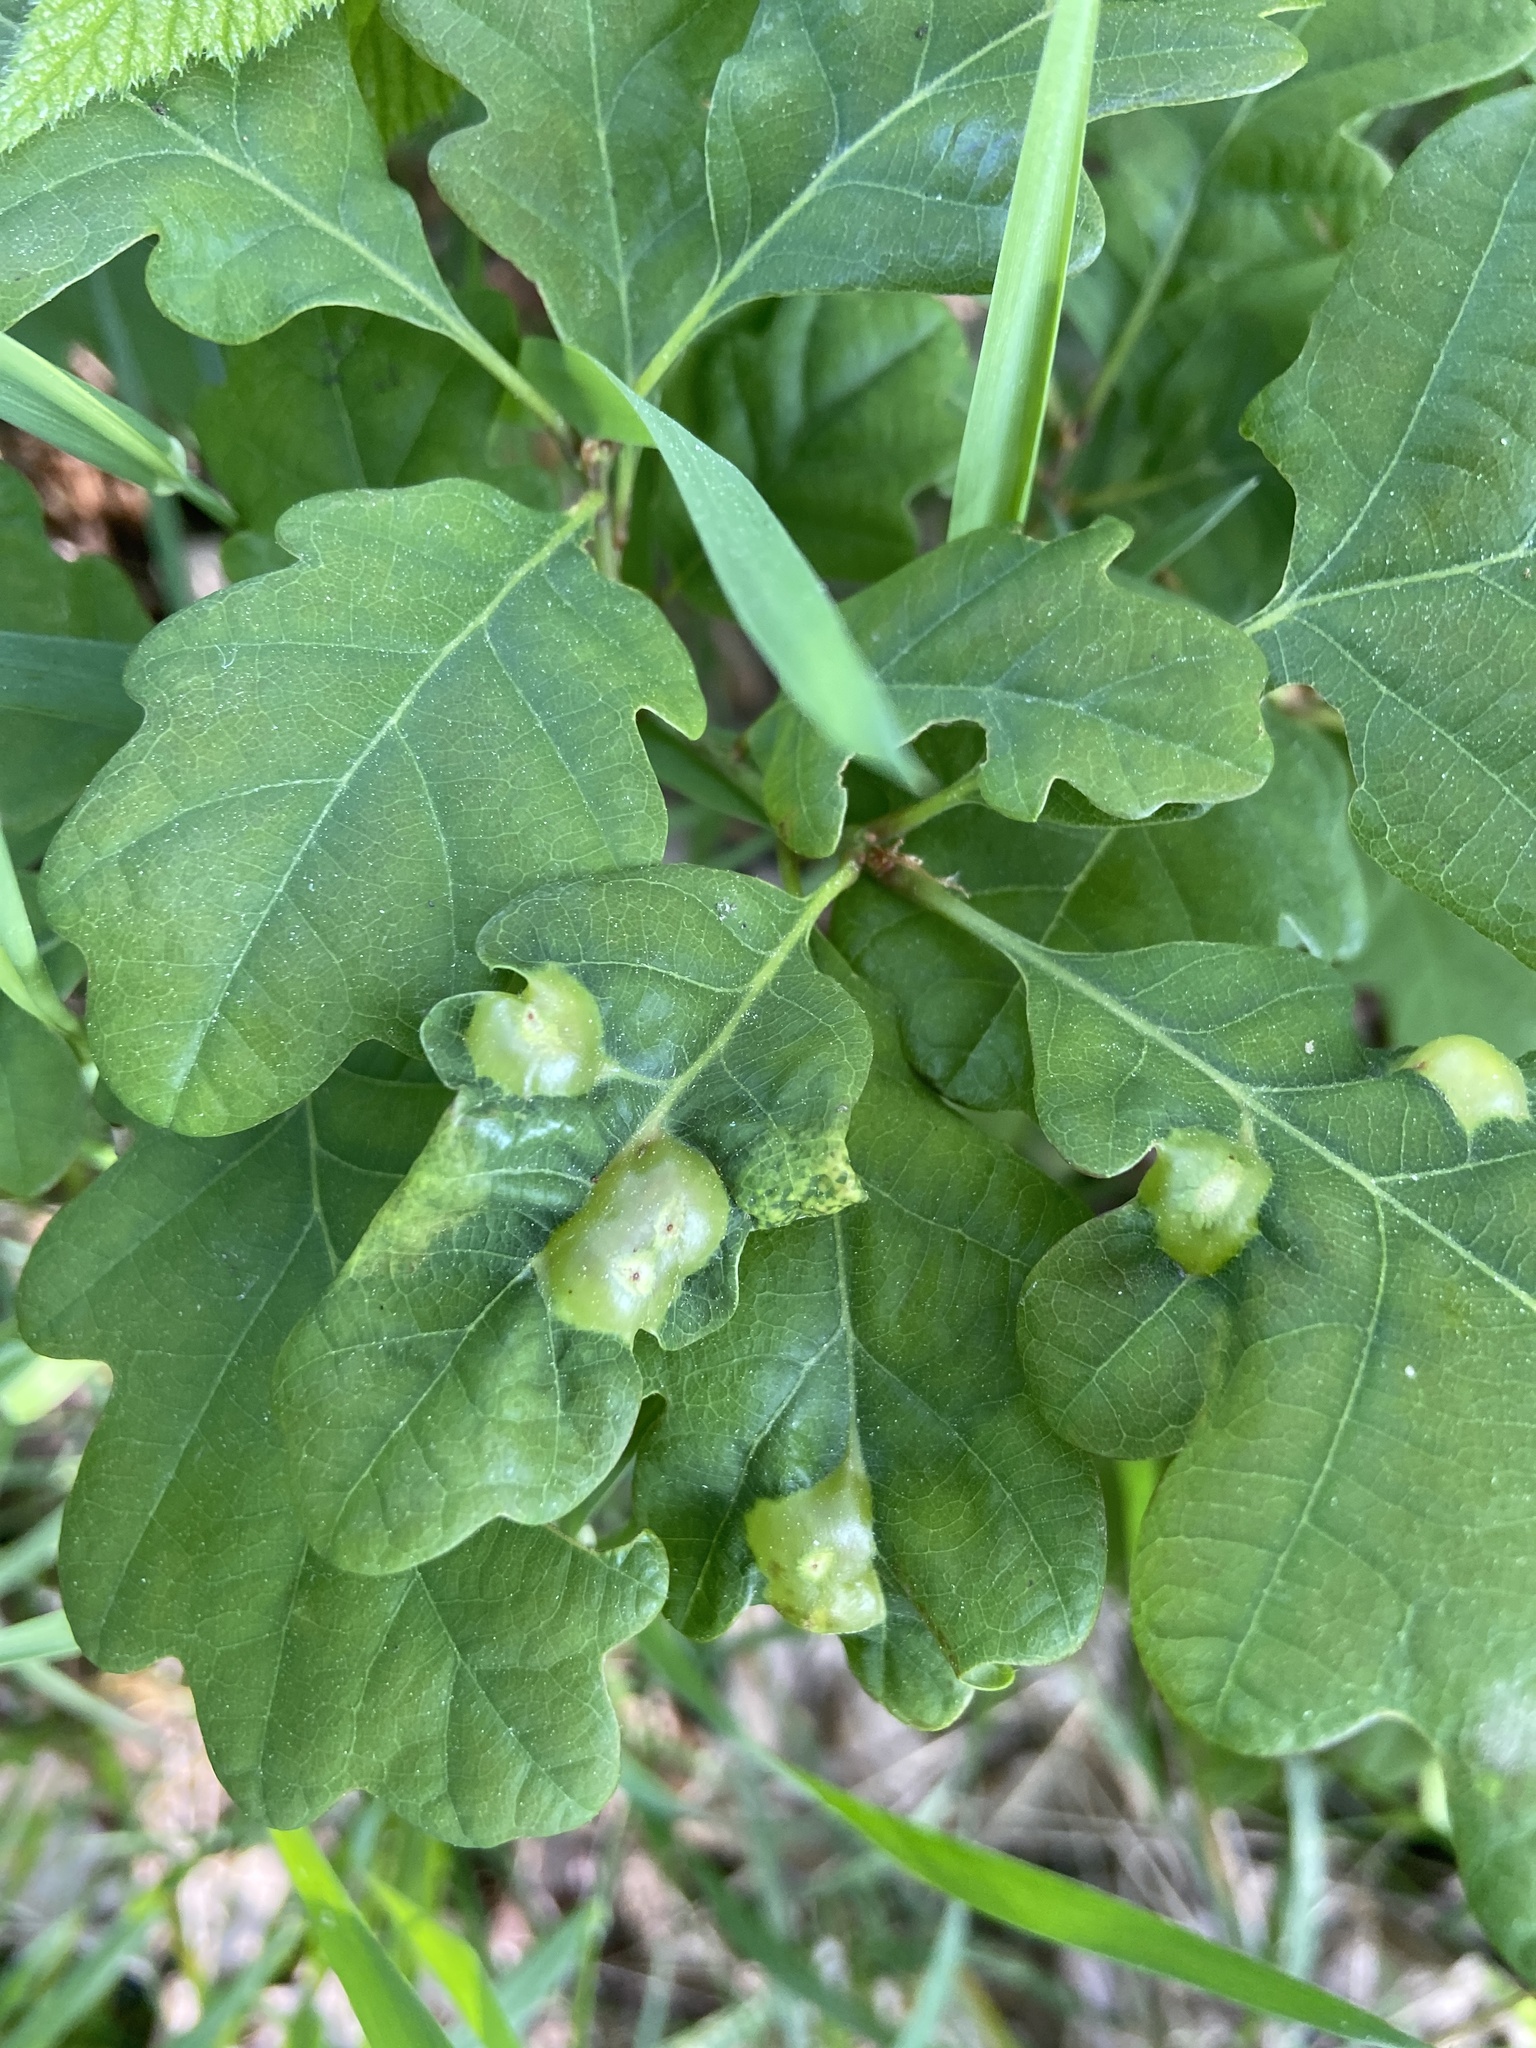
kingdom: Animalia
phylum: Arthropoda
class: Insecta
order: Hymenoptera
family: Cynipidae
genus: Andricus
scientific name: Andricus curvator
